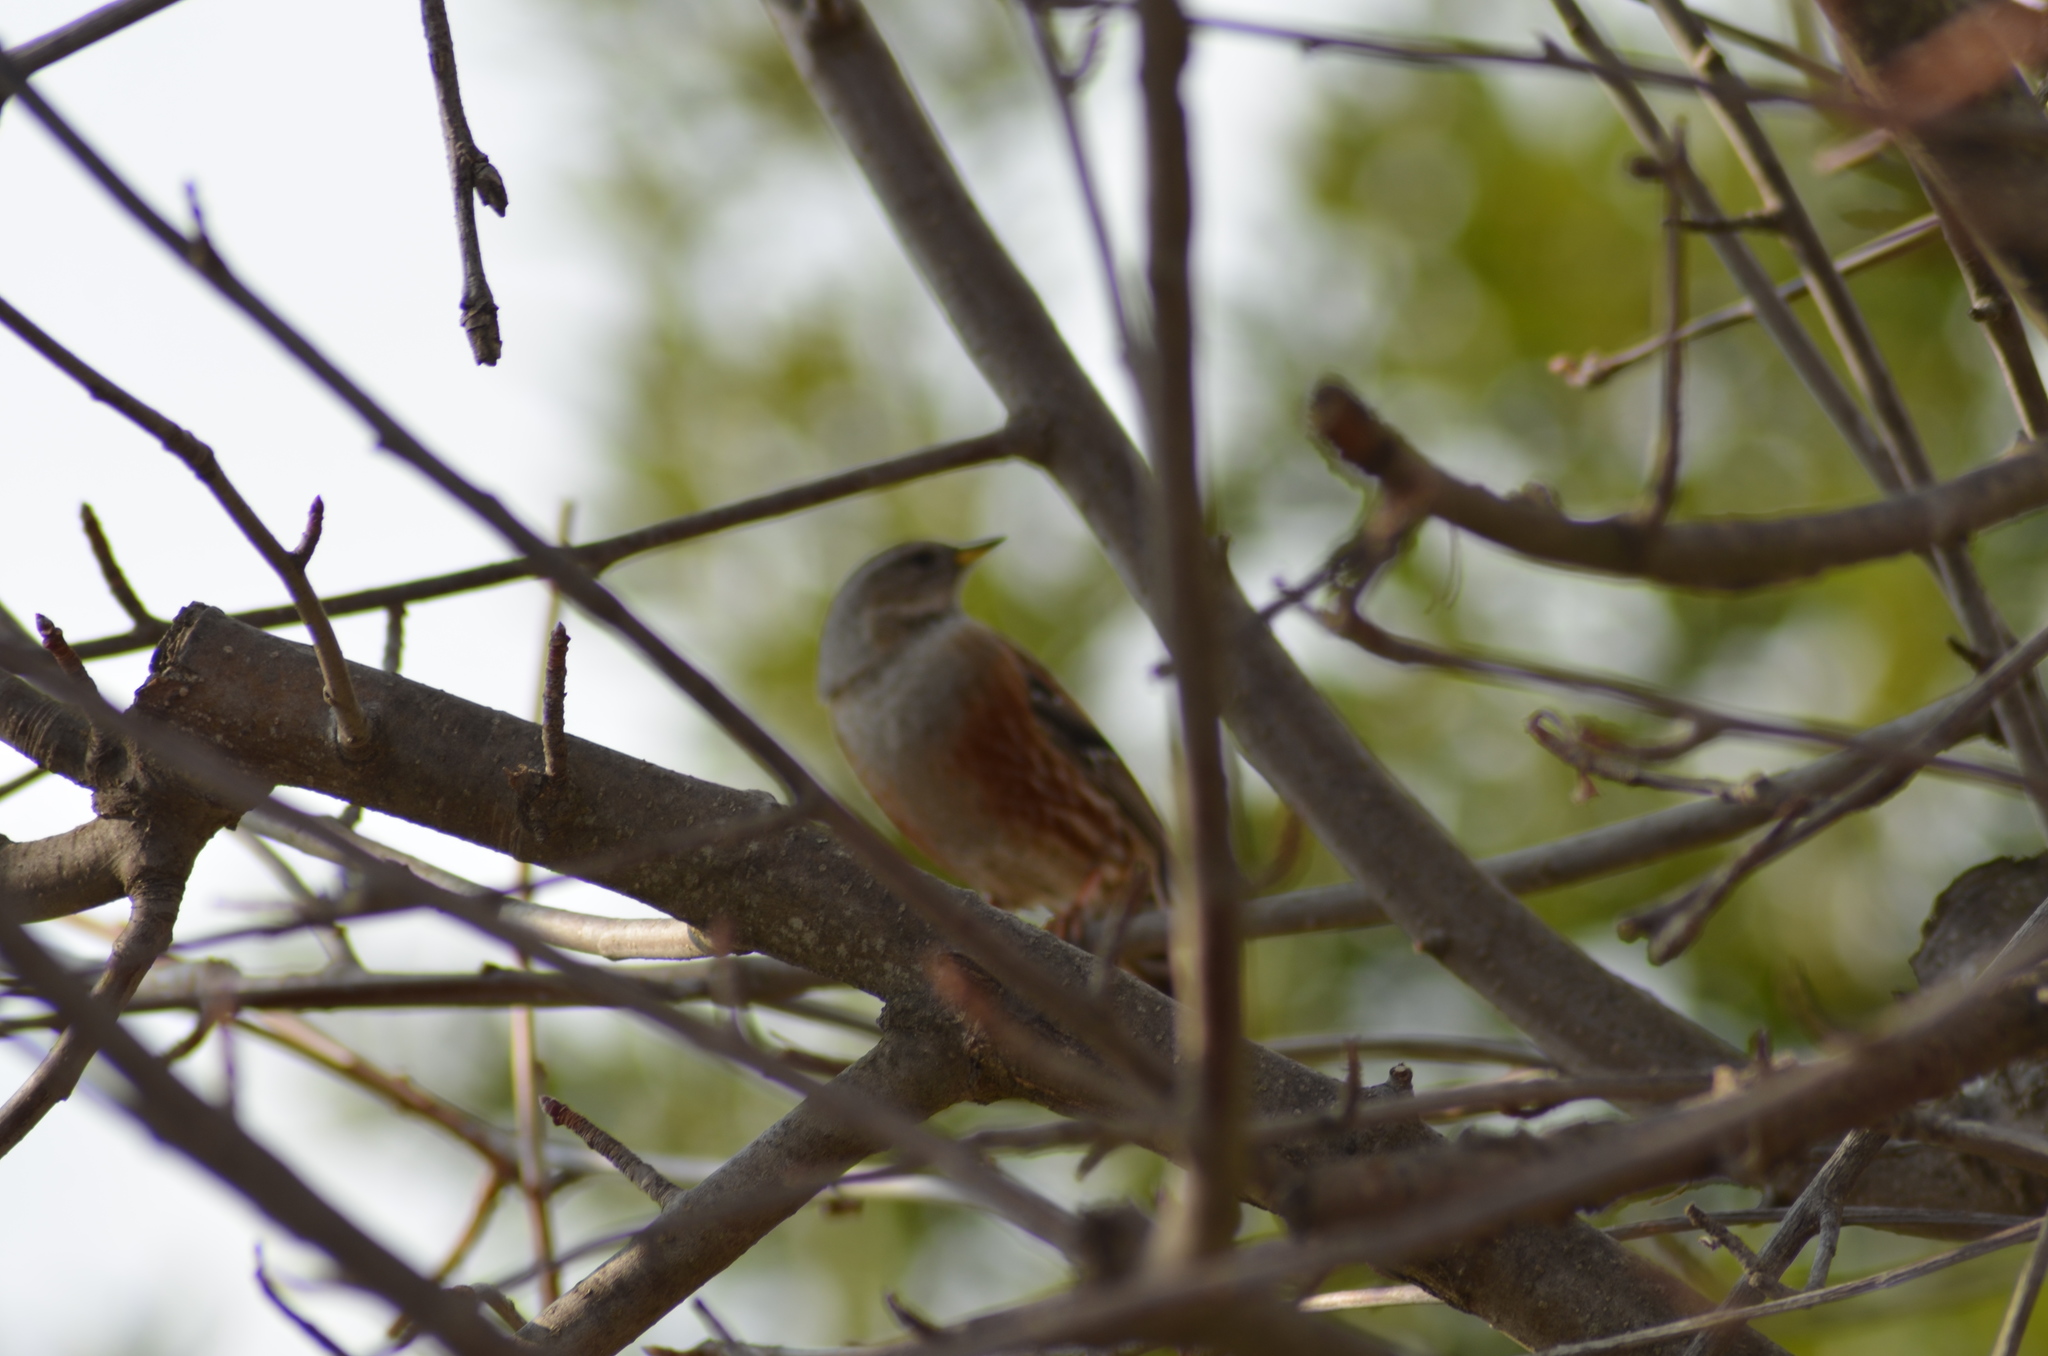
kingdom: Animalia
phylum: Chordata
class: Aves
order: Passeriformes
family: Prunellidae
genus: Prunella
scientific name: Prunella collaris
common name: Alpine accentor
